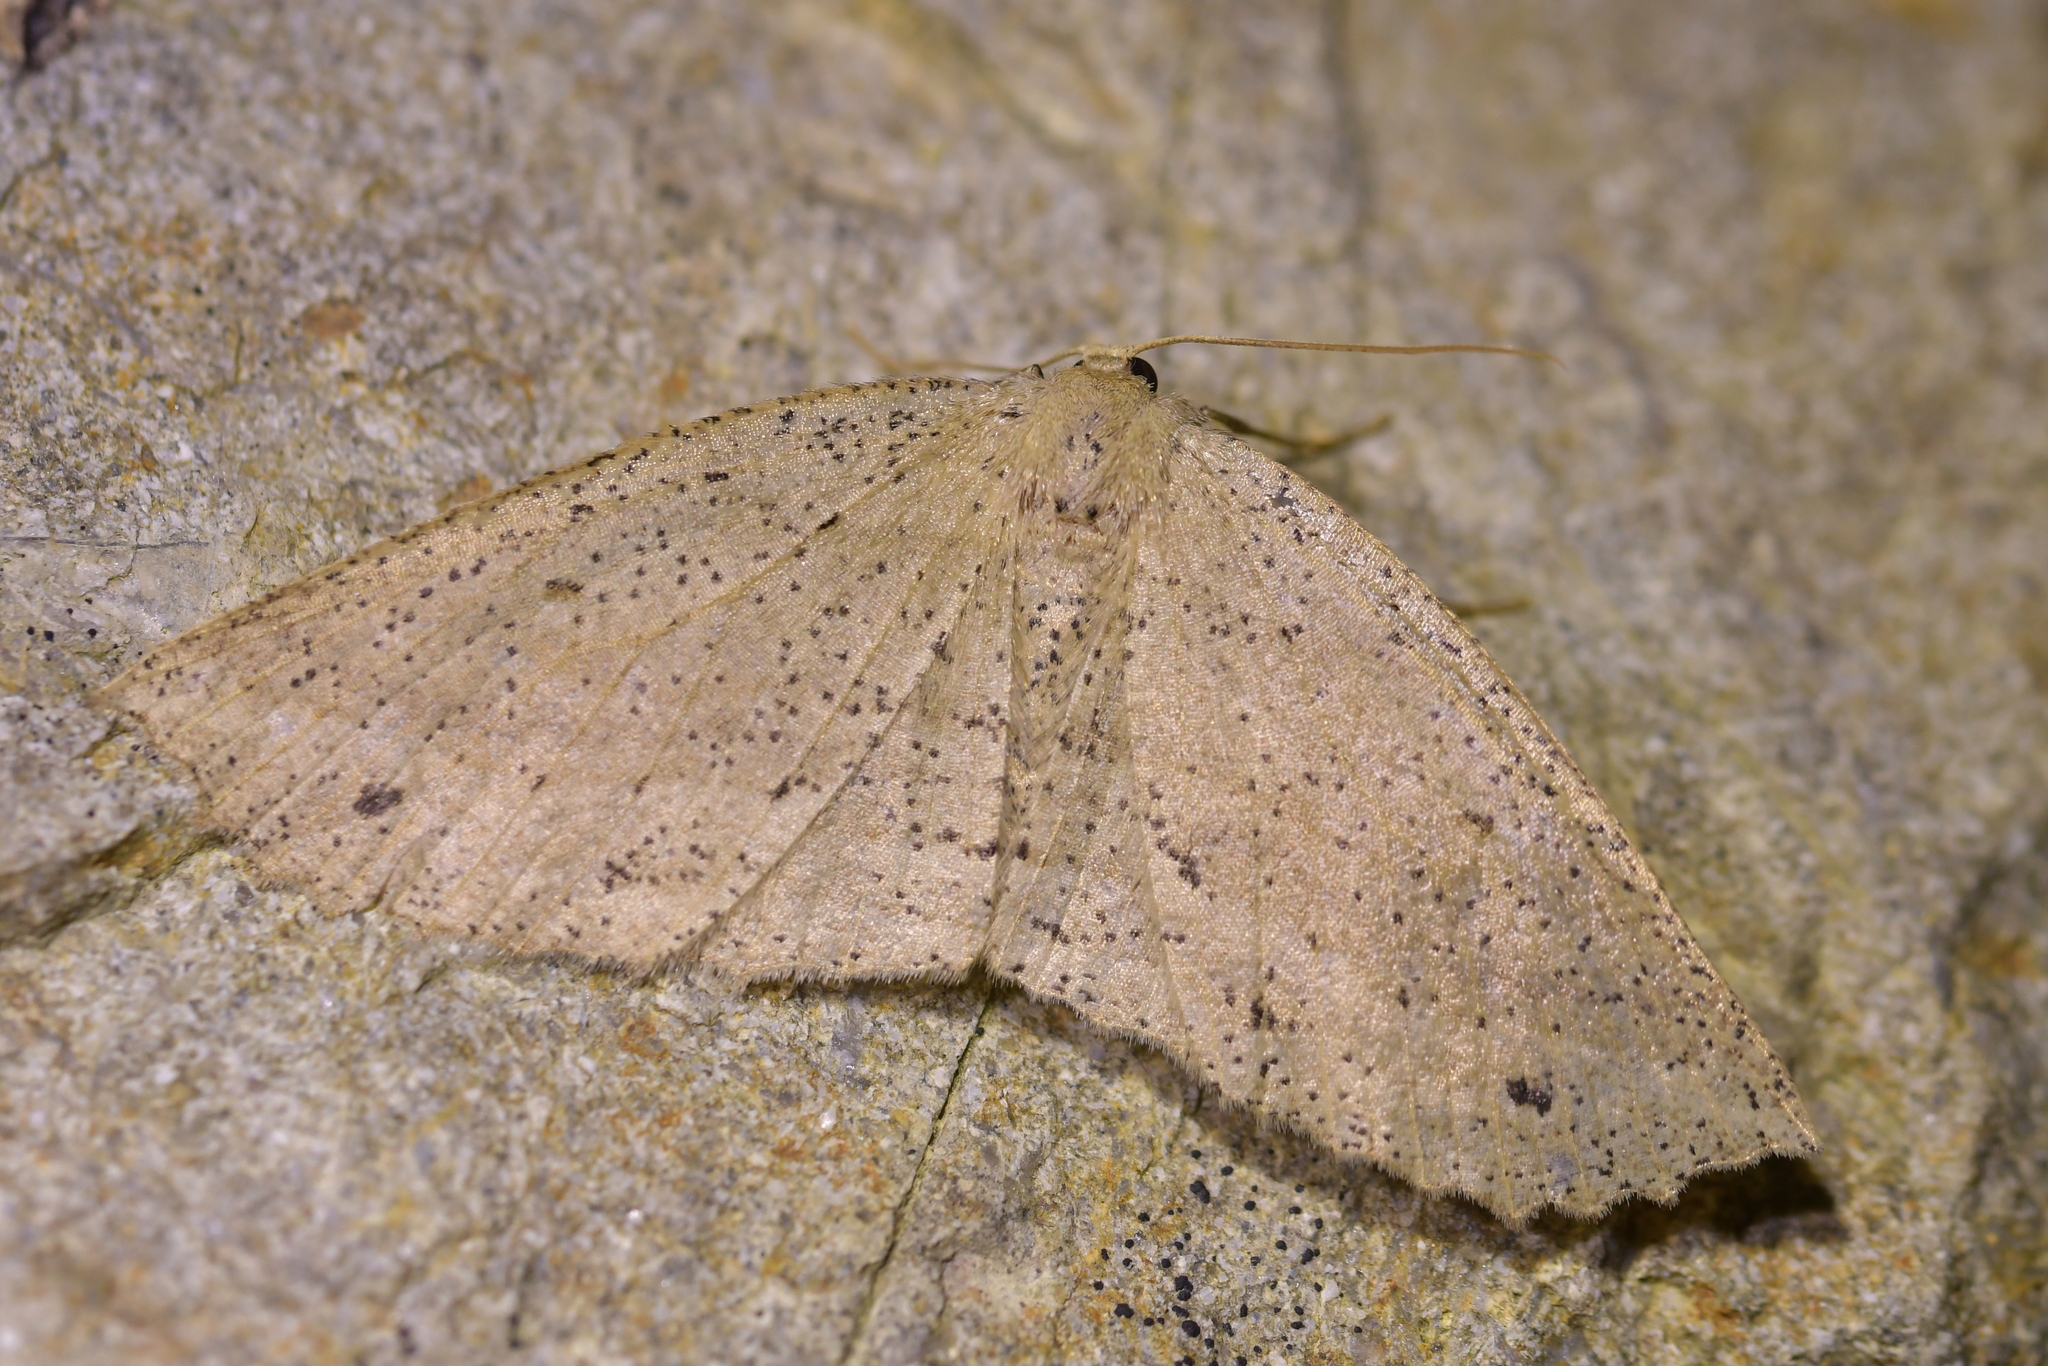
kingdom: Animalia
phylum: Arthropoda
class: Insecta
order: Lepidoptera
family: Geometridae
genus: Xyridacma
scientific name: Xyridacma veronicae
